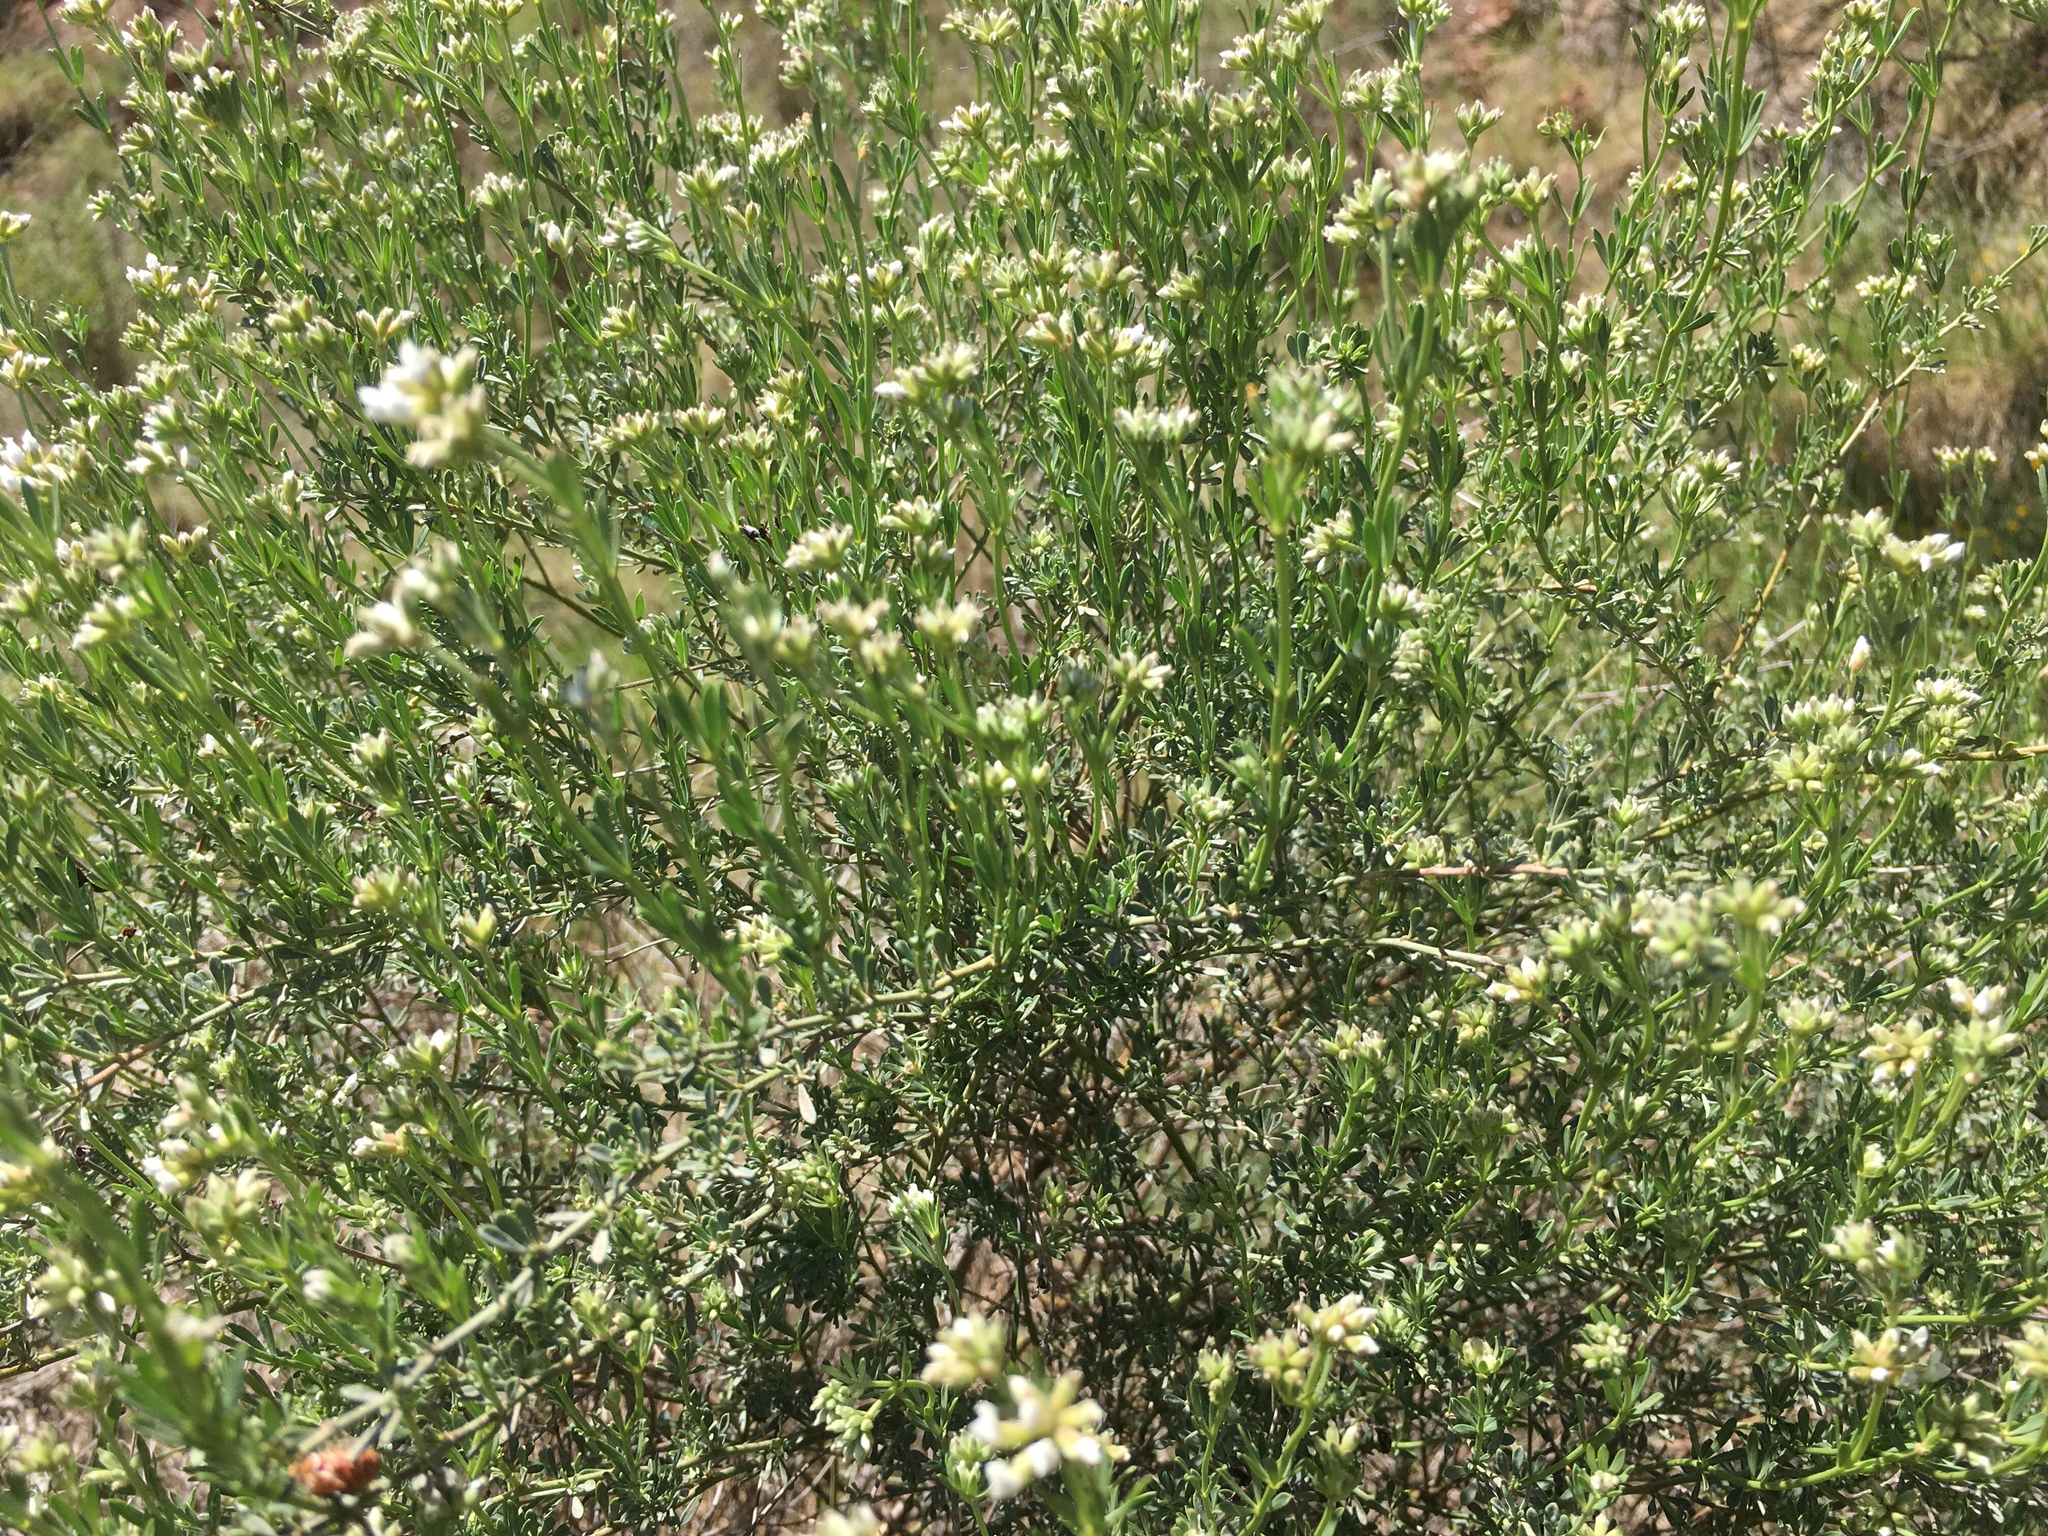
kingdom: Plantae
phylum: Tracheophyta
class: Magnoliopsida
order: Fabales
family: Fabaceae
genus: Lotus
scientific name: Lotus dorycnium
